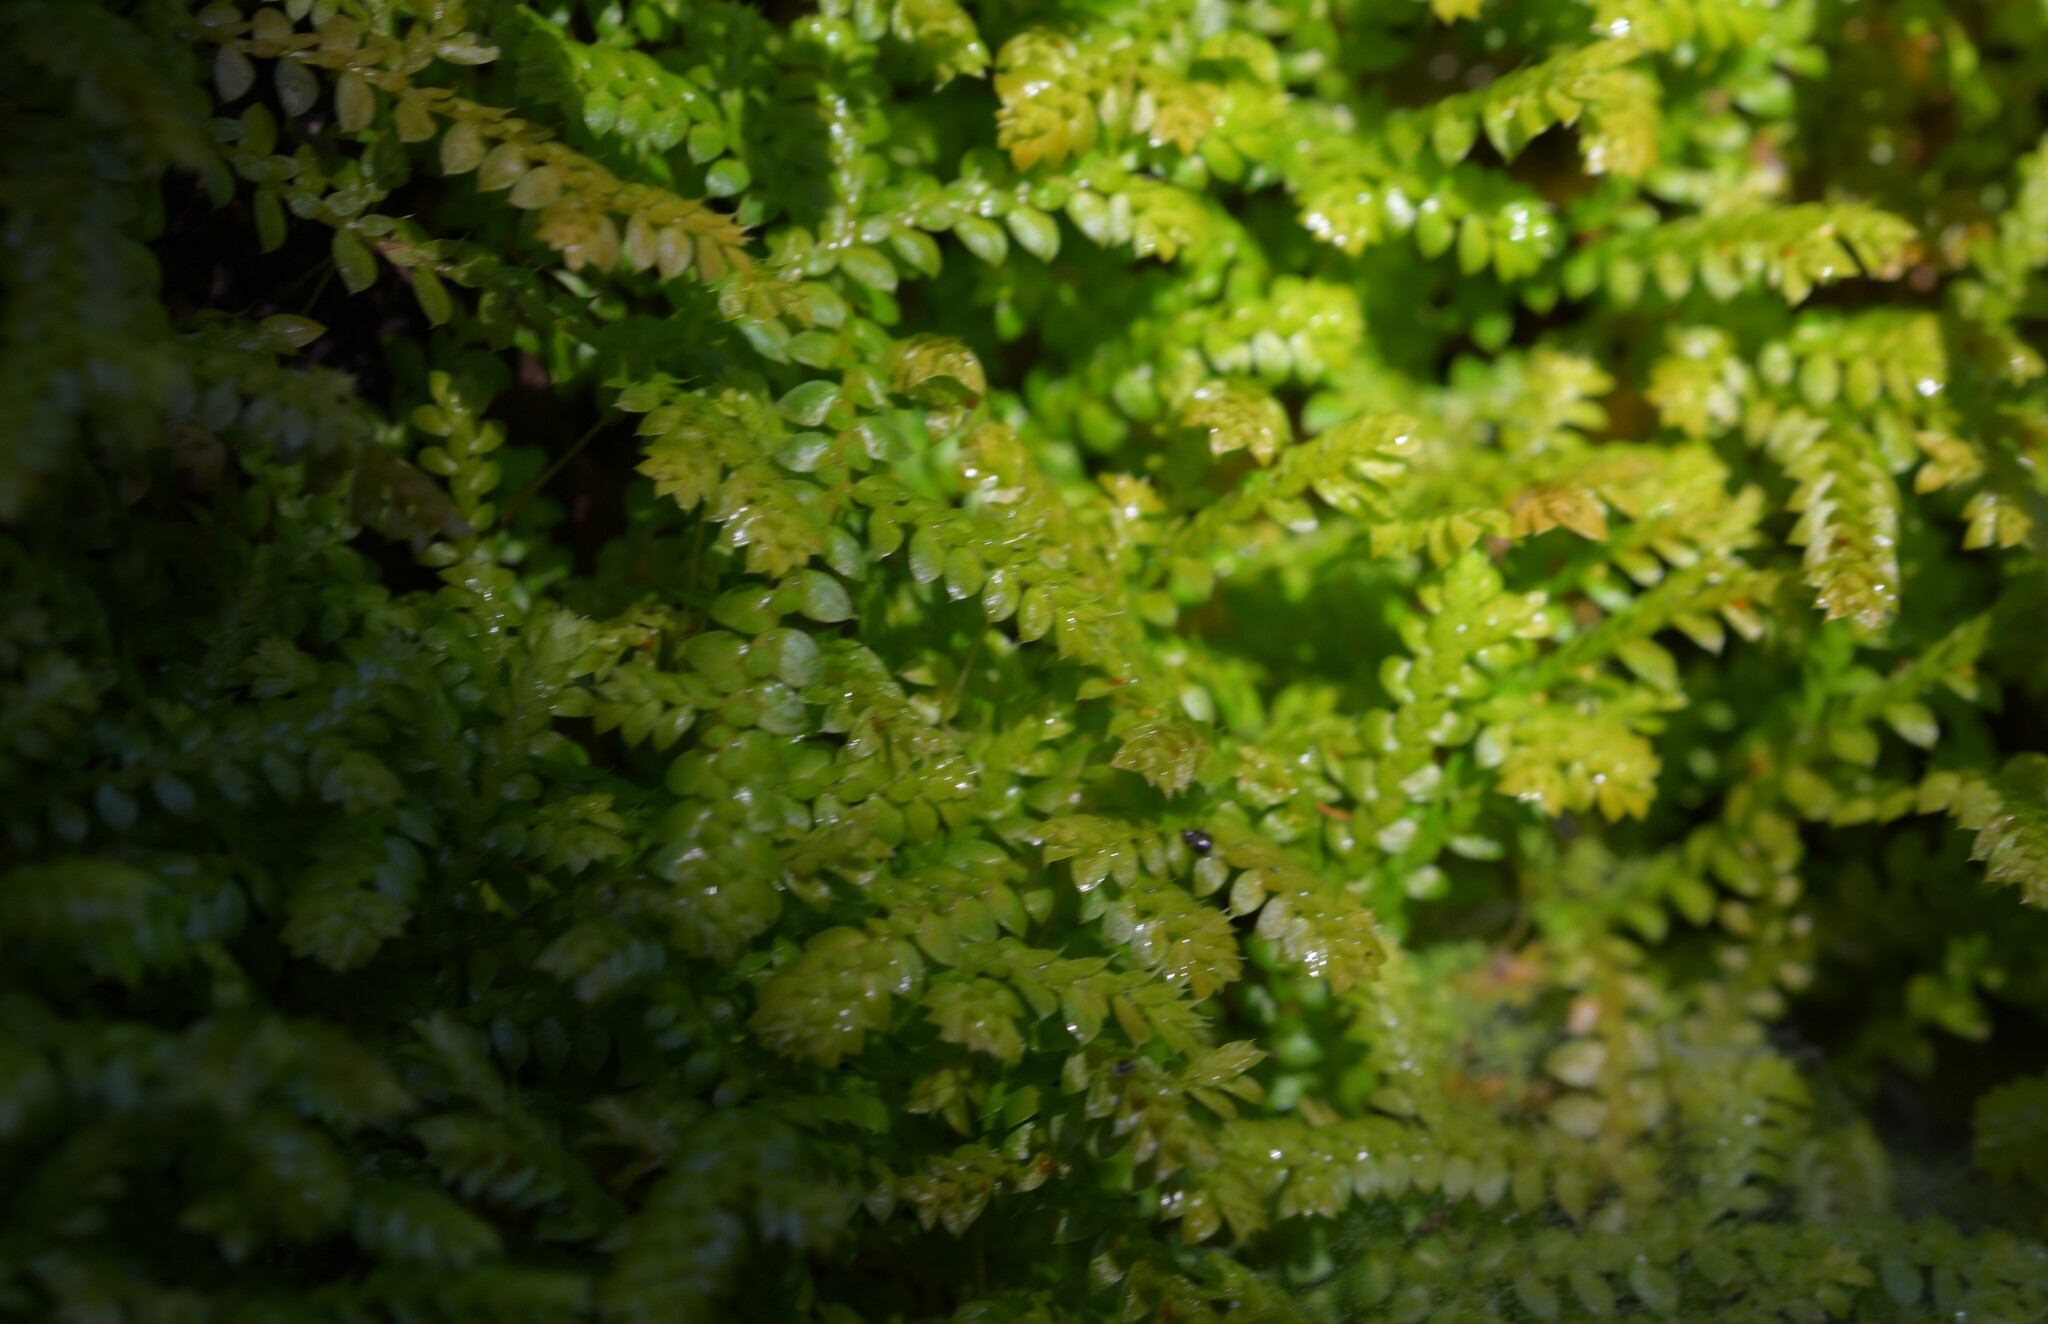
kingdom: Plantae
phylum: Tracheophyta
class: Lycopodiopsida
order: Selaginellales
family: Selaginellaceae
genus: Selaginella
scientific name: Selaginella denticulata
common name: Toothed-leaved clubmoss
